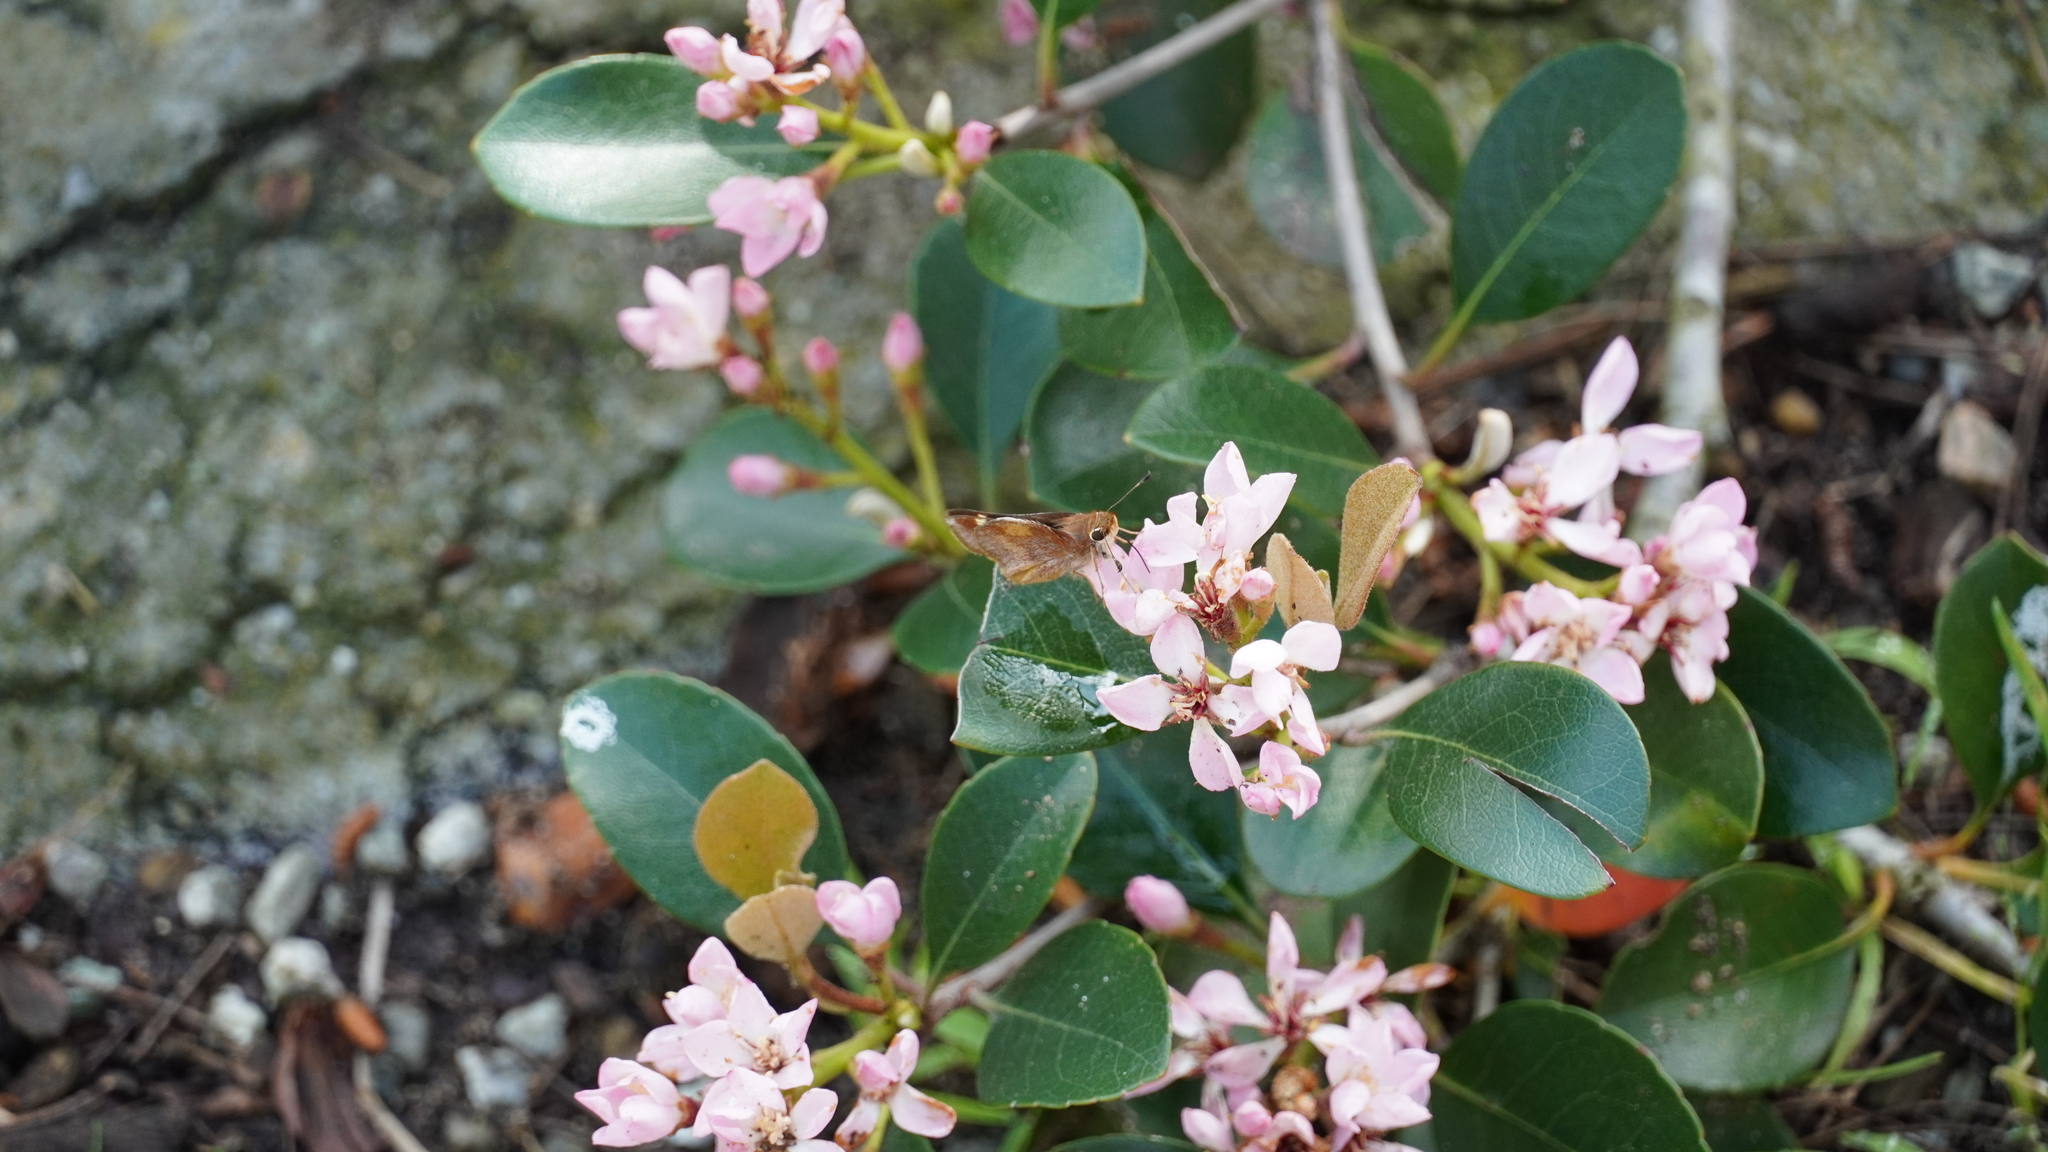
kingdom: Animalia
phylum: Arthropoda
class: Insecta
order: Lepidoptera
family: Hesperiidae
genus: Lon
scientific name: Lon melane
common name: Umber skipper
